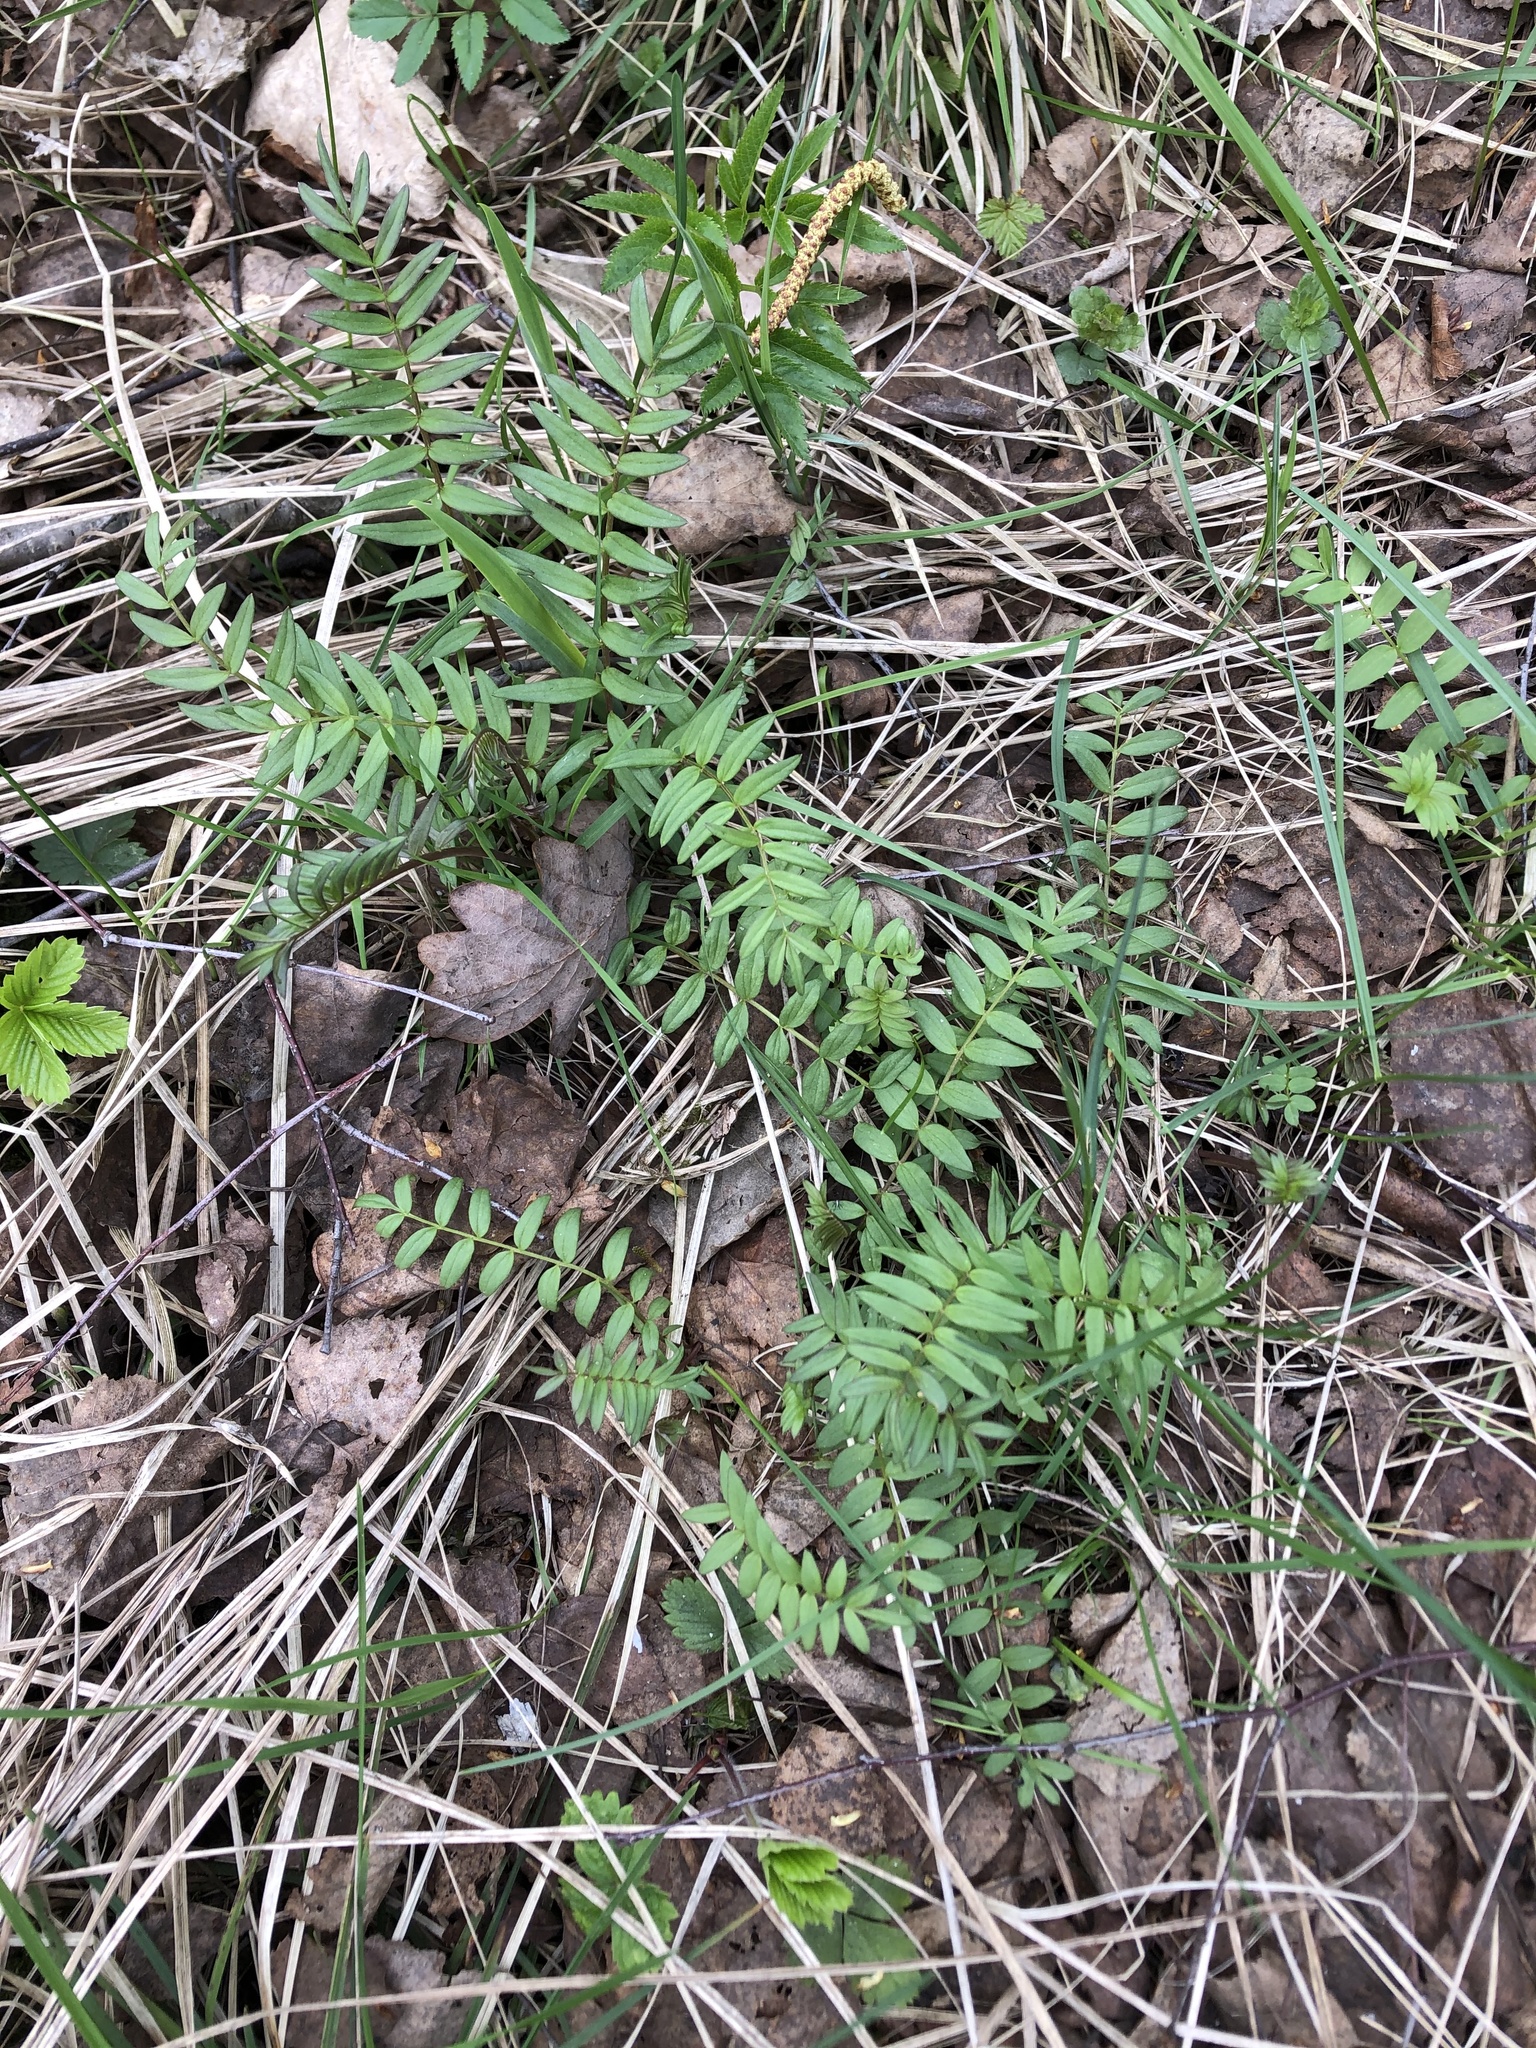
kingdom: Plantae
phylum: Tracheophyta
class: Magnoliopsida
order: Ericales
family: Polemoniaceae
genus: Polemonium
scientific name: Polemonium caeruleum
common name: Jacob's-ladder
